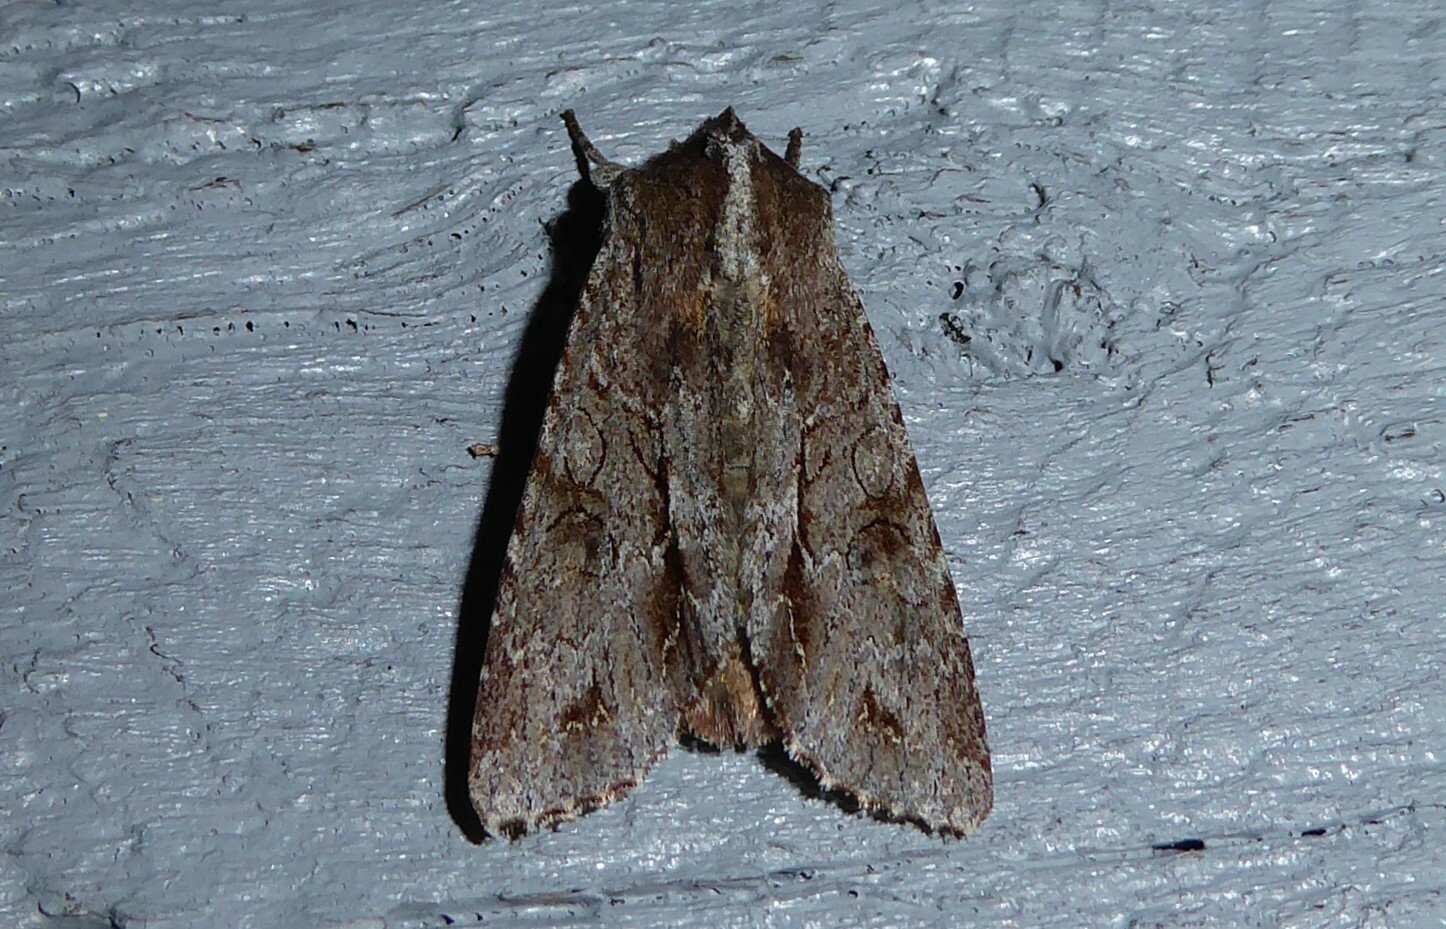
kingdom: Animalia
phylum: Arthropoda
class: Insecta
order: Lepidoptera
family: Noctuidae
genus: Ichneutica
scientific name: Ichneutica
